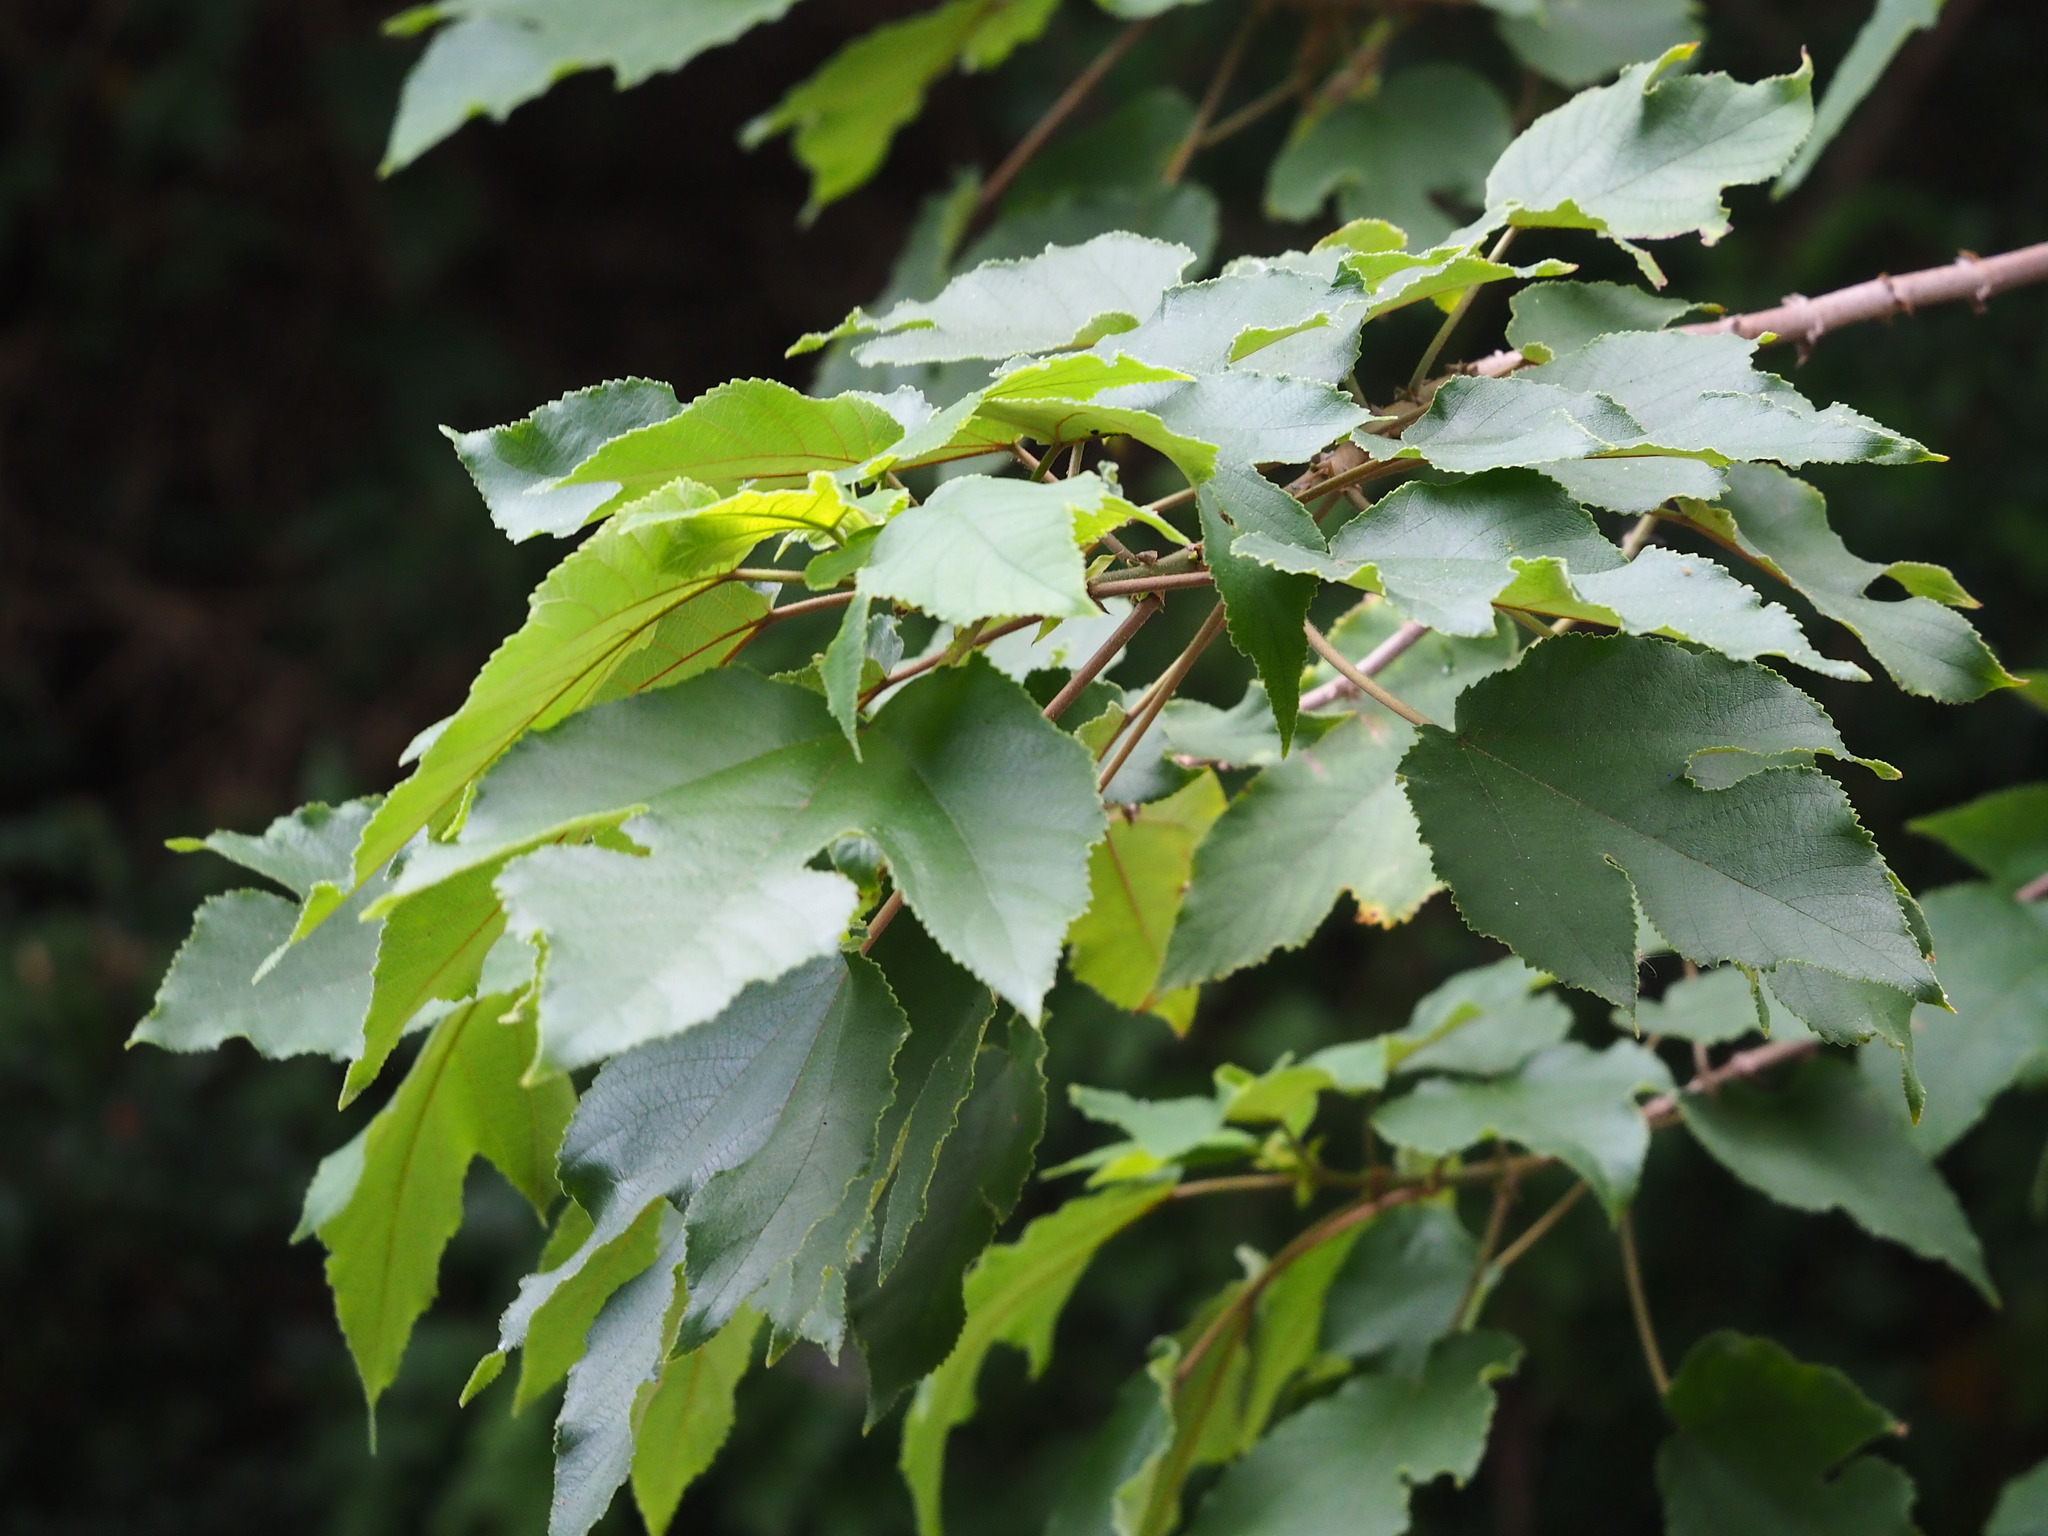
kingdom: Plantae
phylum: Tracheophyta
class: Magnoliopsida
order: Rosales
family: Moraceae
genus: Broussonetia
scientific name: Broussonetia papyrifera
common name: Paper mulberry
